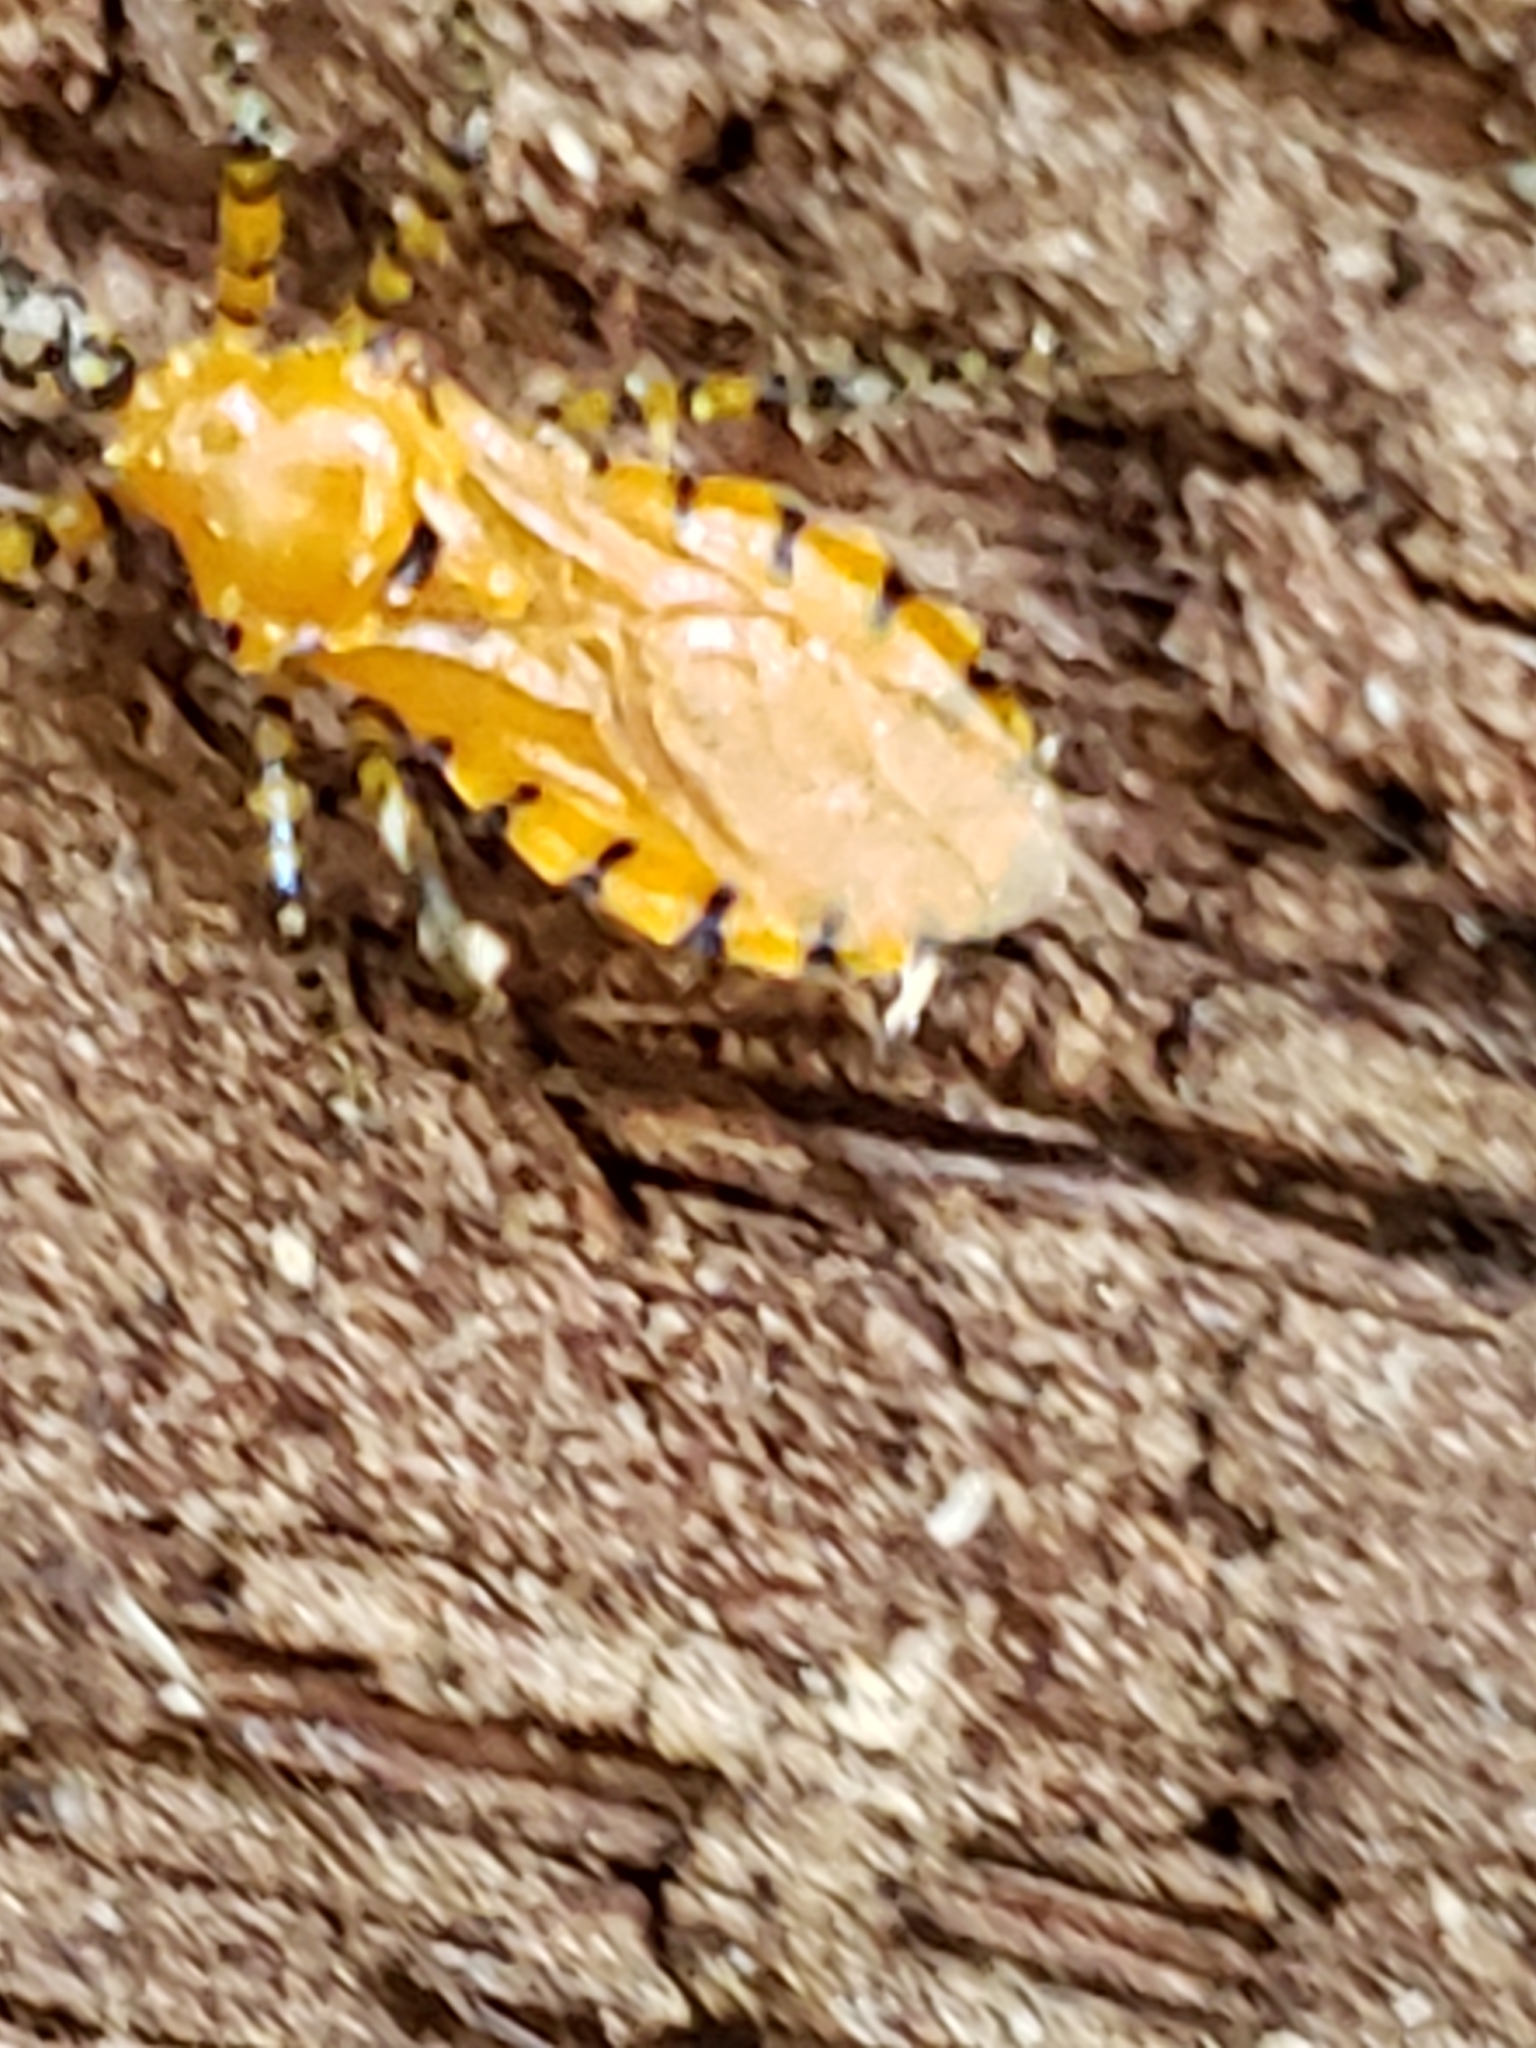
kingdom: Animalia
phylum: Arthropoda
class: Insecta
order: Hemiptera
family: Reduviidae
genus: Pselliopus
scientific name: Pselliopus barberi
